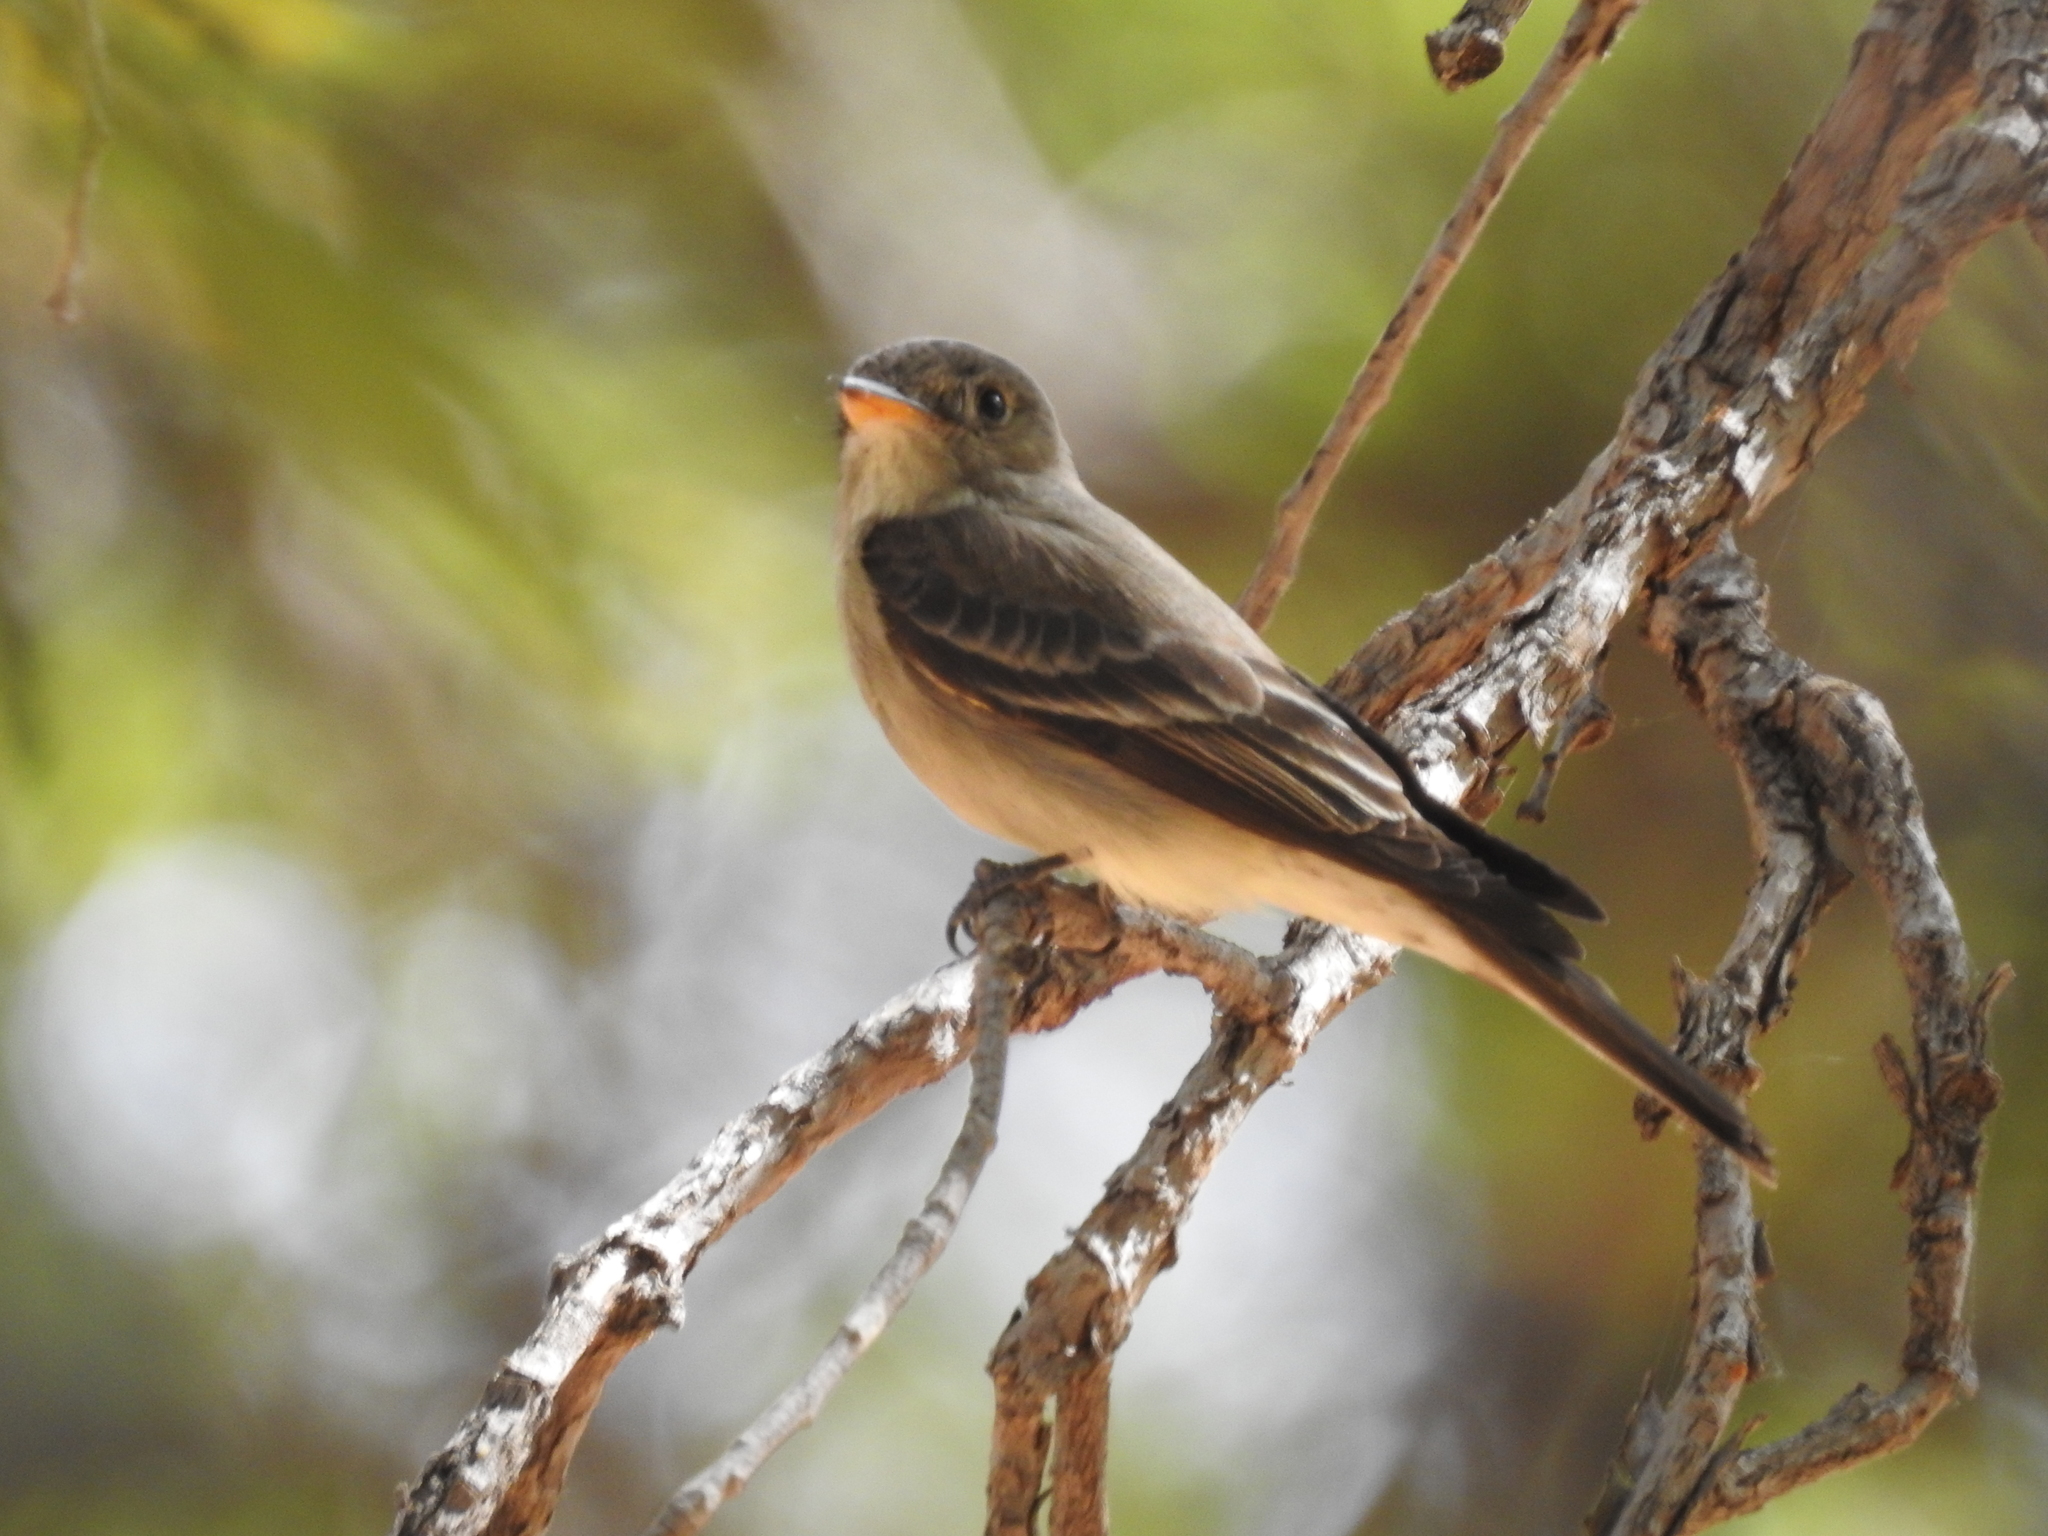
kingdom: Animalia
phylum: Chordata
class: Aves
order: Passeriformes
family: Tyrannidae
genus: Contopus
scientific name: Contopus sordidulus
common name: Western wood-pewee
